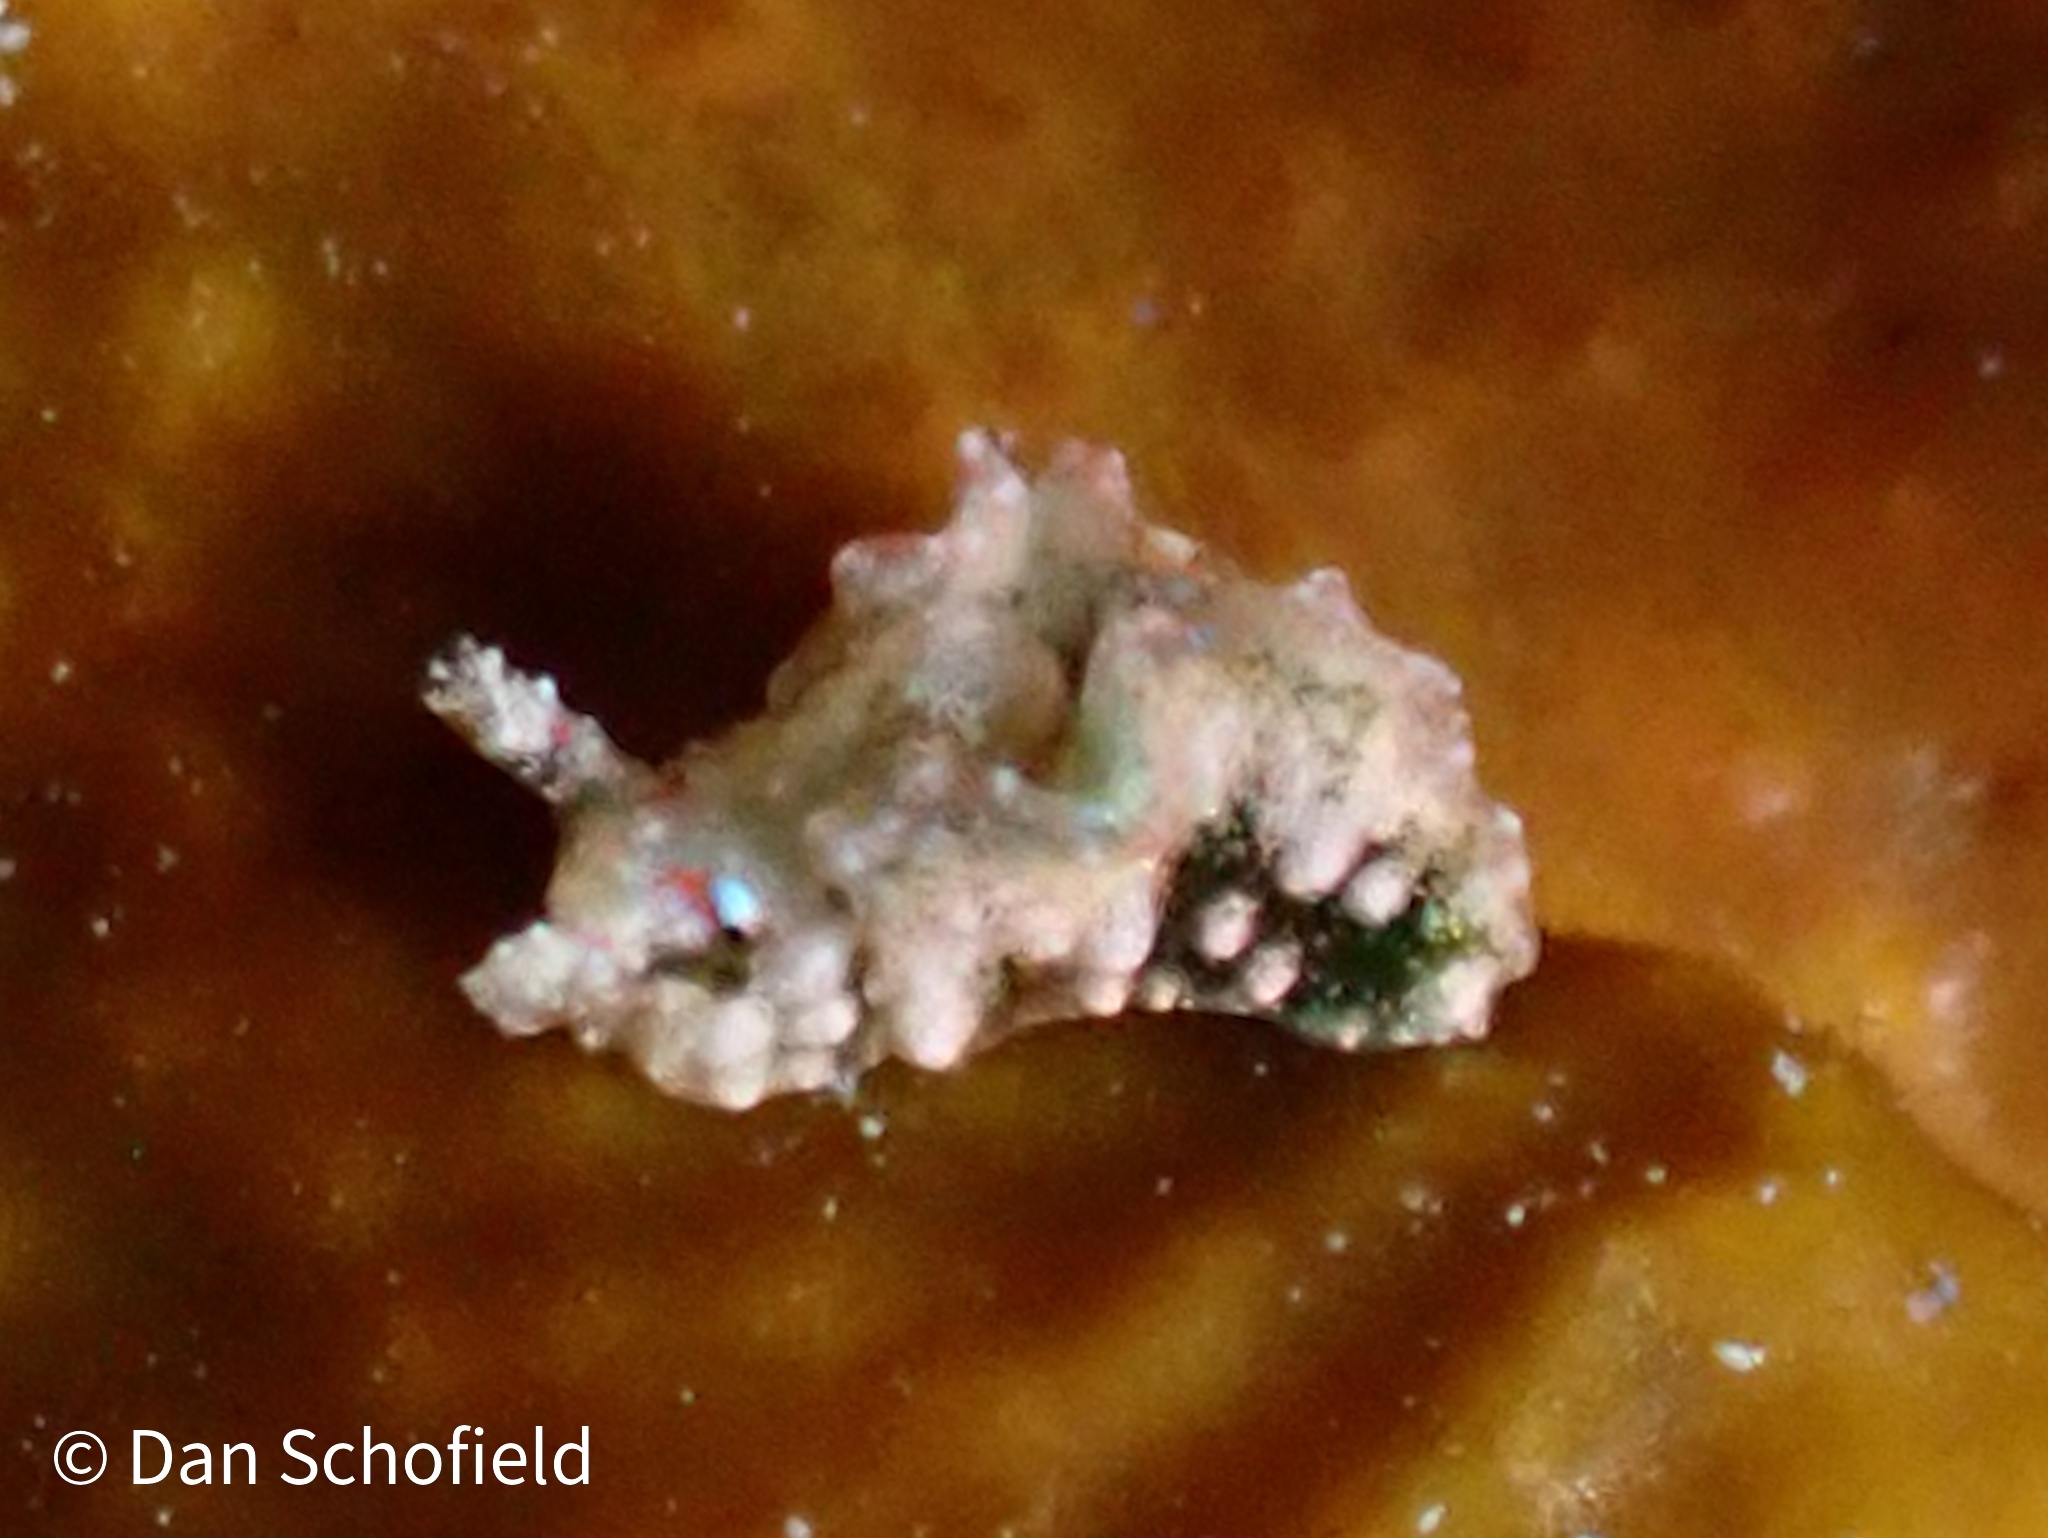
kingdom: Animalia
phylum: Mollusca
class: Gastropoda
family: Plakobranchidae
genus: Elysia
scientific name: Elysia ellenae
